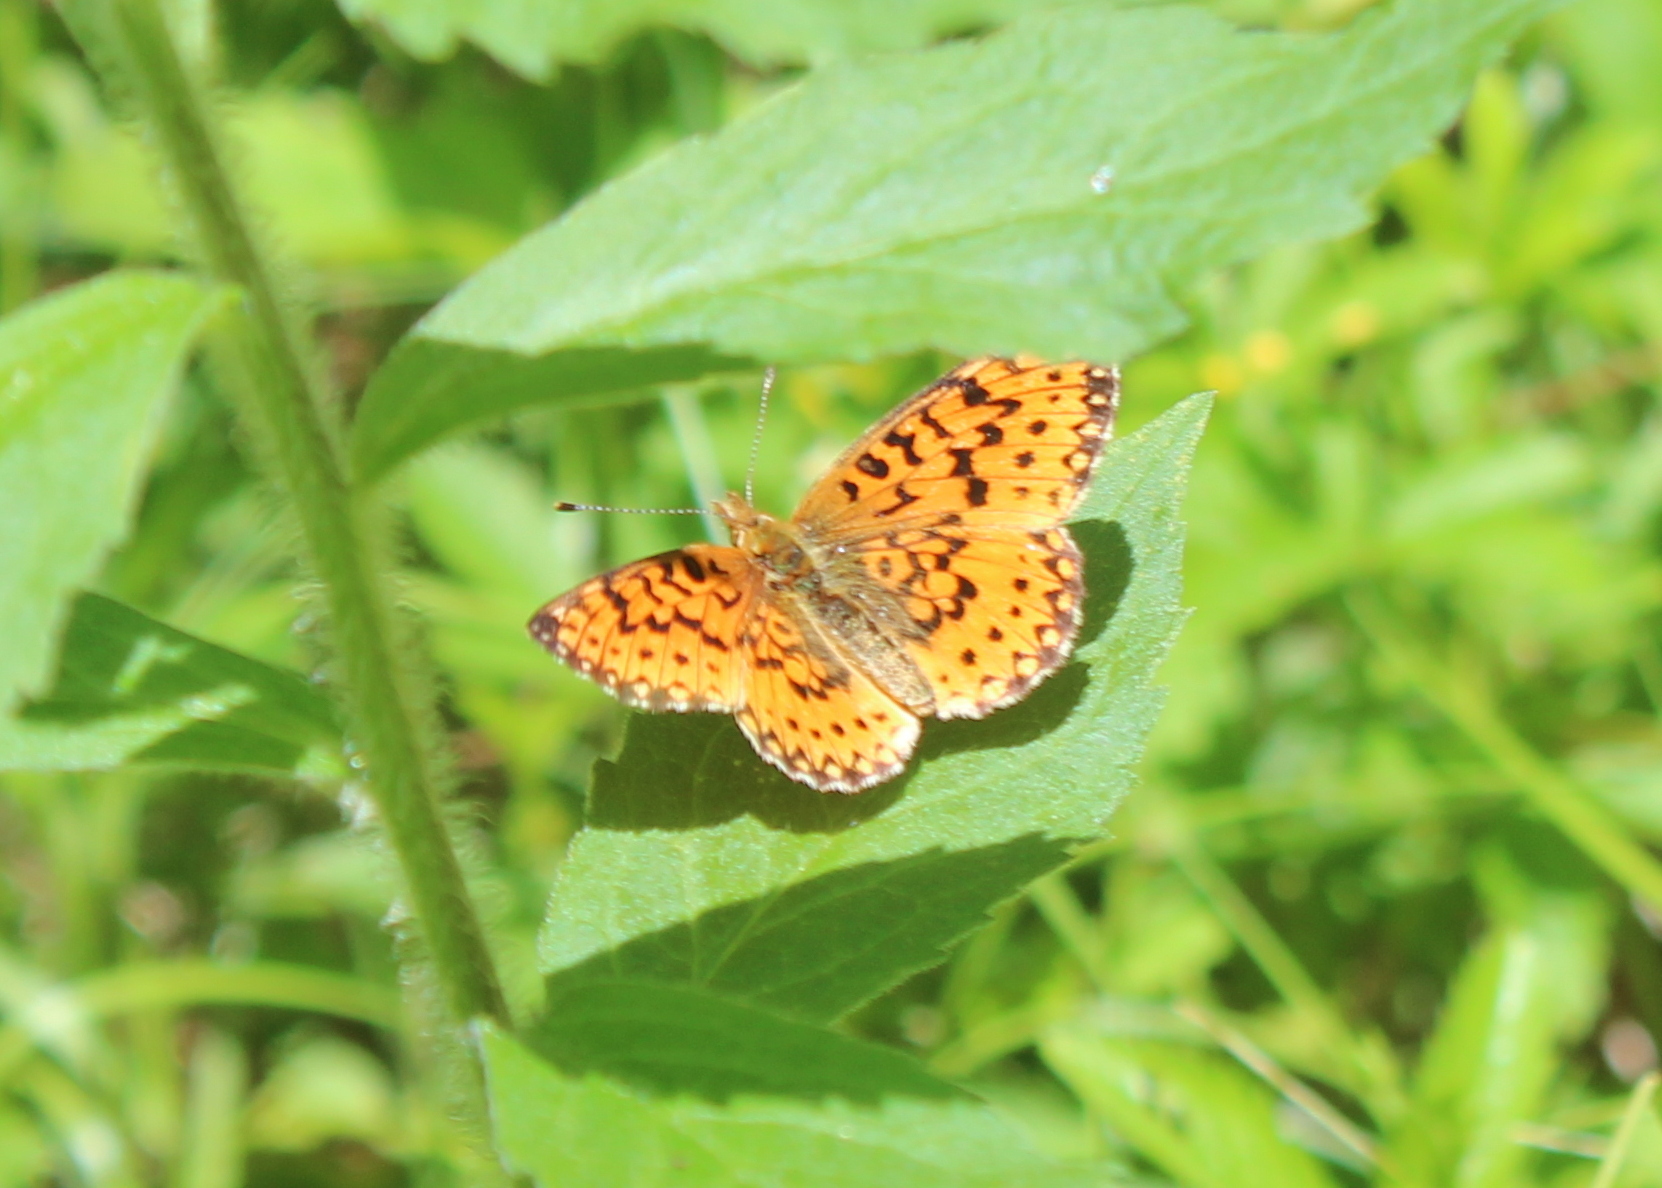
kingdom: Animalia
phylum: Arthropoda
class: Insecta
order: Lepidoptera
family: Nymphalidae
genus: Boloria
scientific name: Boloria
